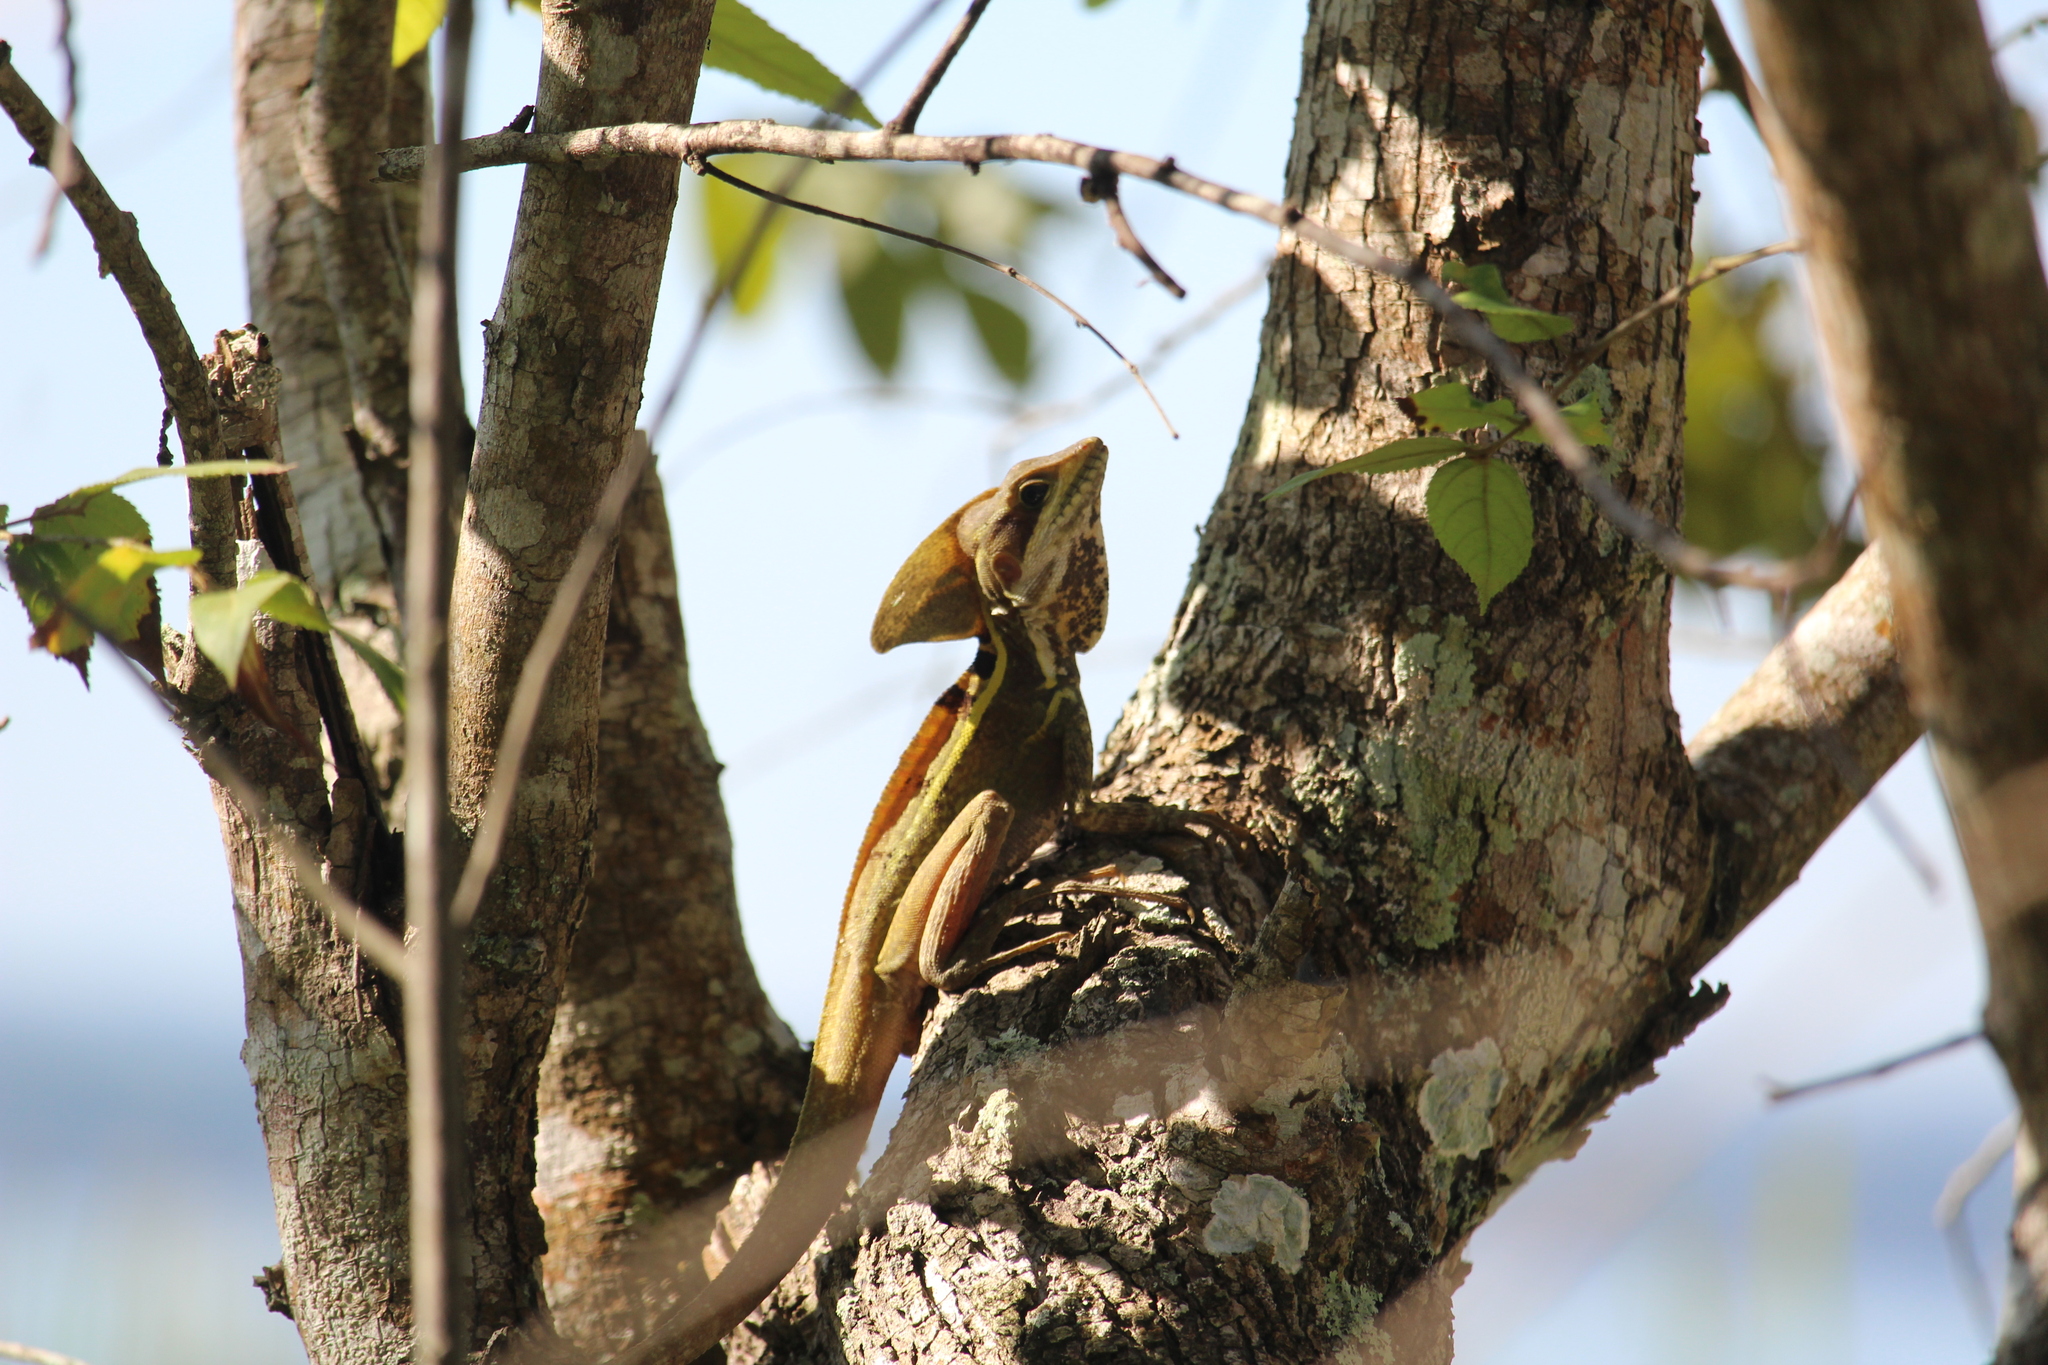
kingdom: Animalia
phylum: Chordata
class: Squamata
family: Corytophanidae
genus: Basiliscus
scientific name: Basiliscus vittatus
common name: Brown basilisk
